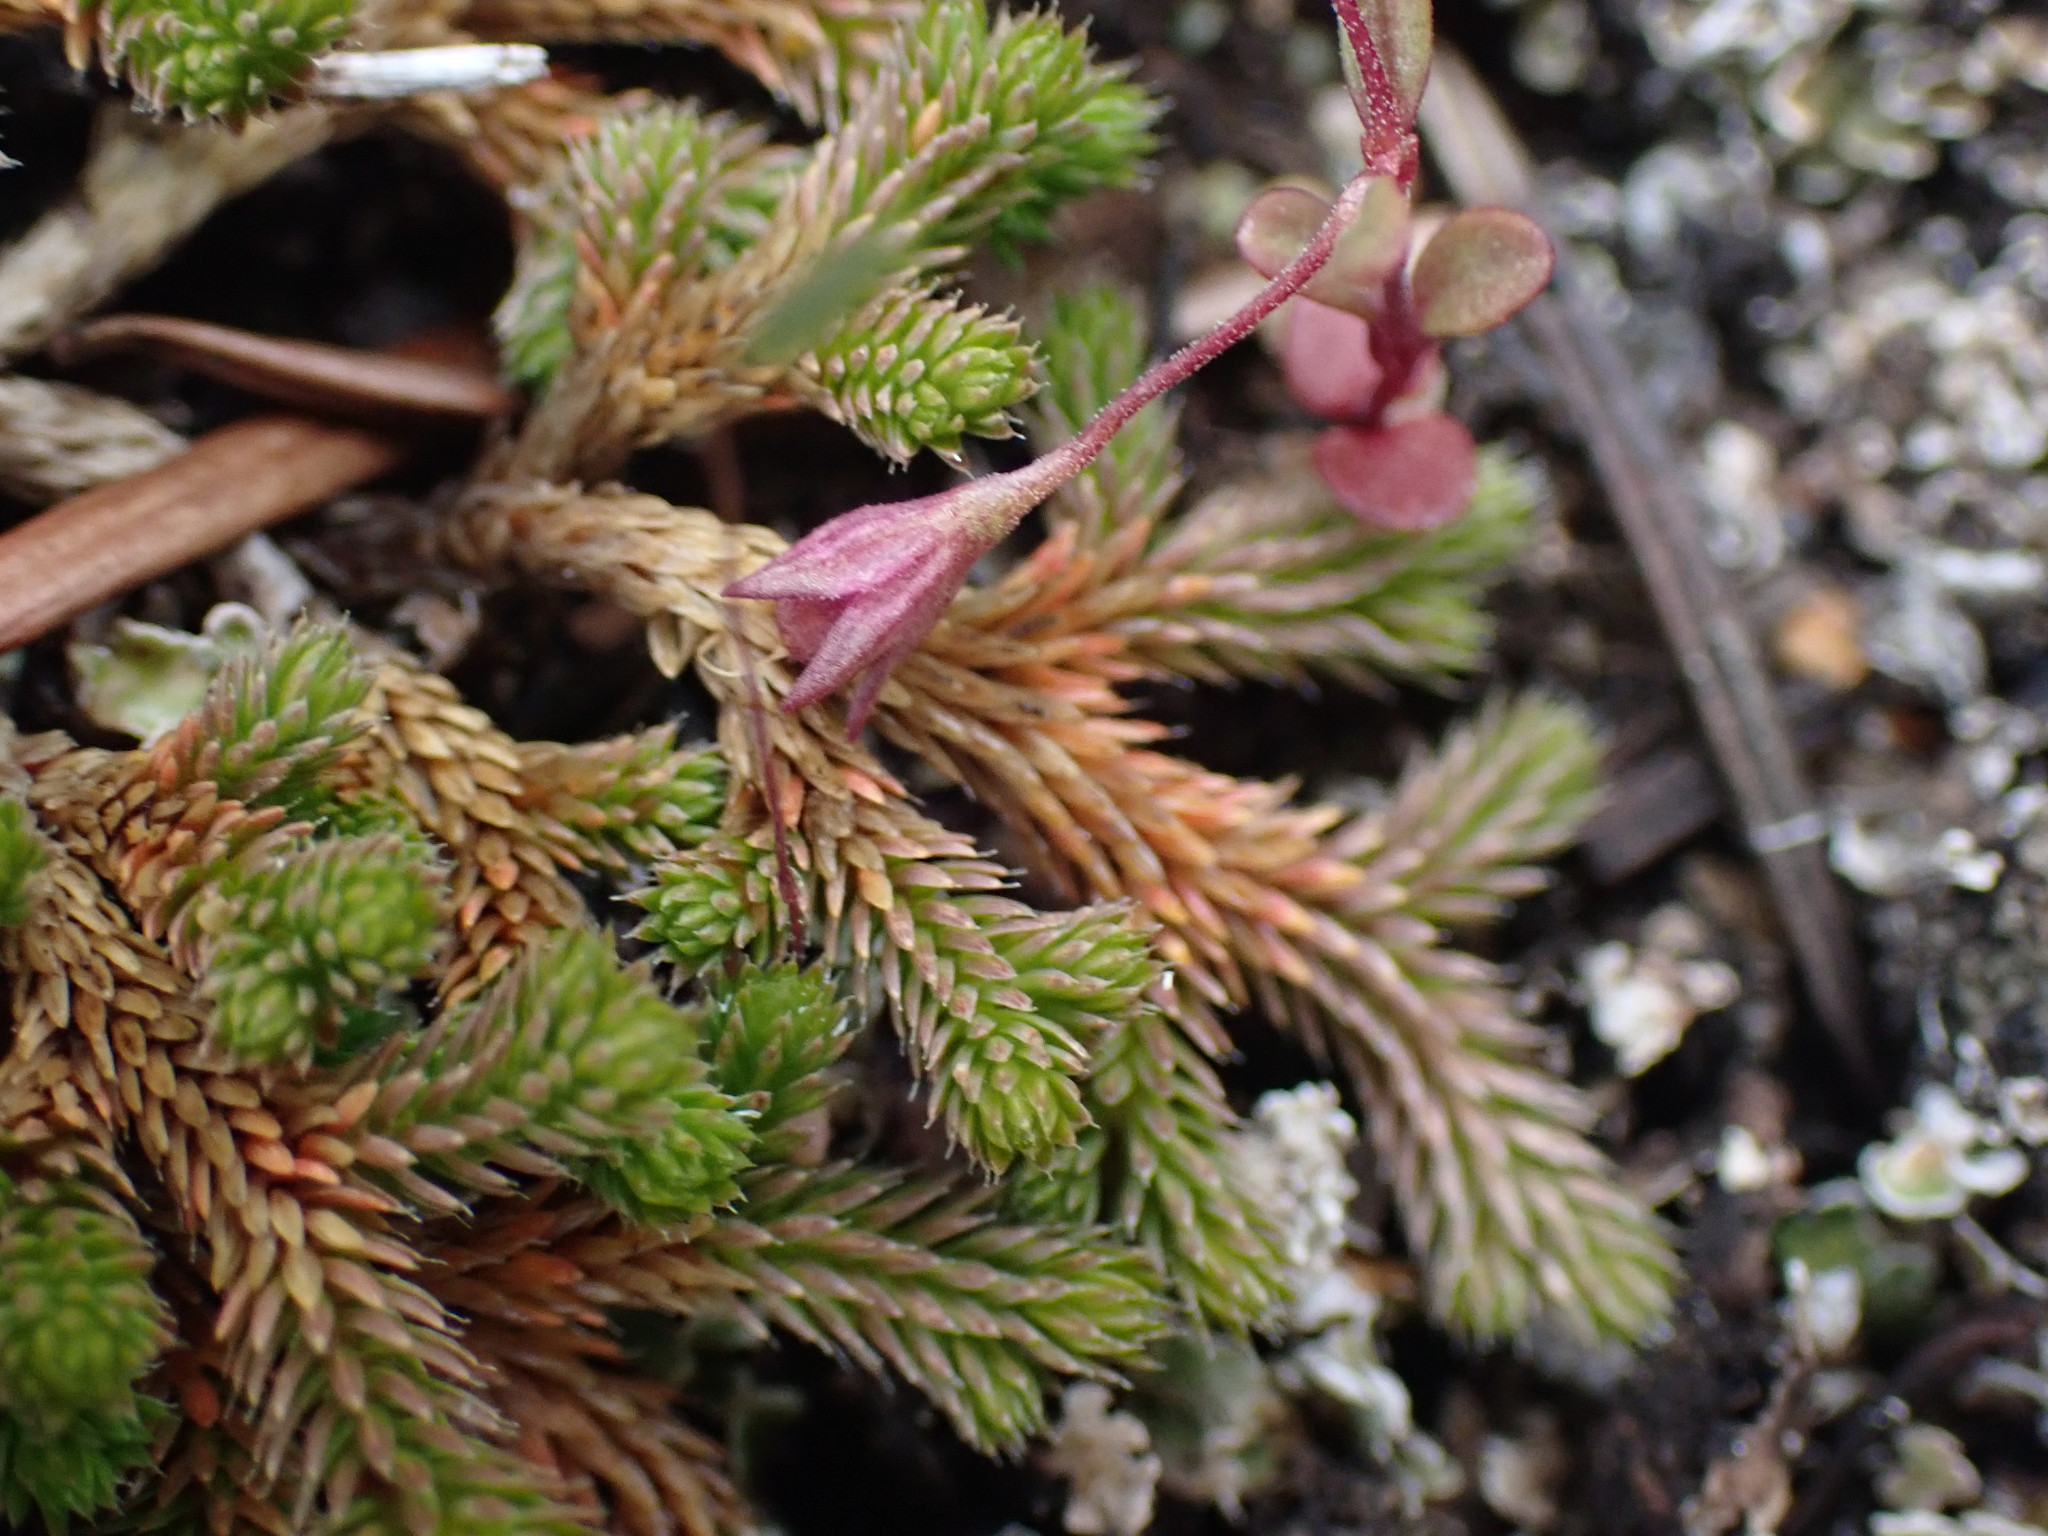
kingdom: Plantae
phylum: Tracheophyta
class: Lycopodiopsida
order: Selaginellales
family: Selaginellaceae
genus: Selaginella
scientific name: Selaginella wallacei
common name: Wallace's selaginella
